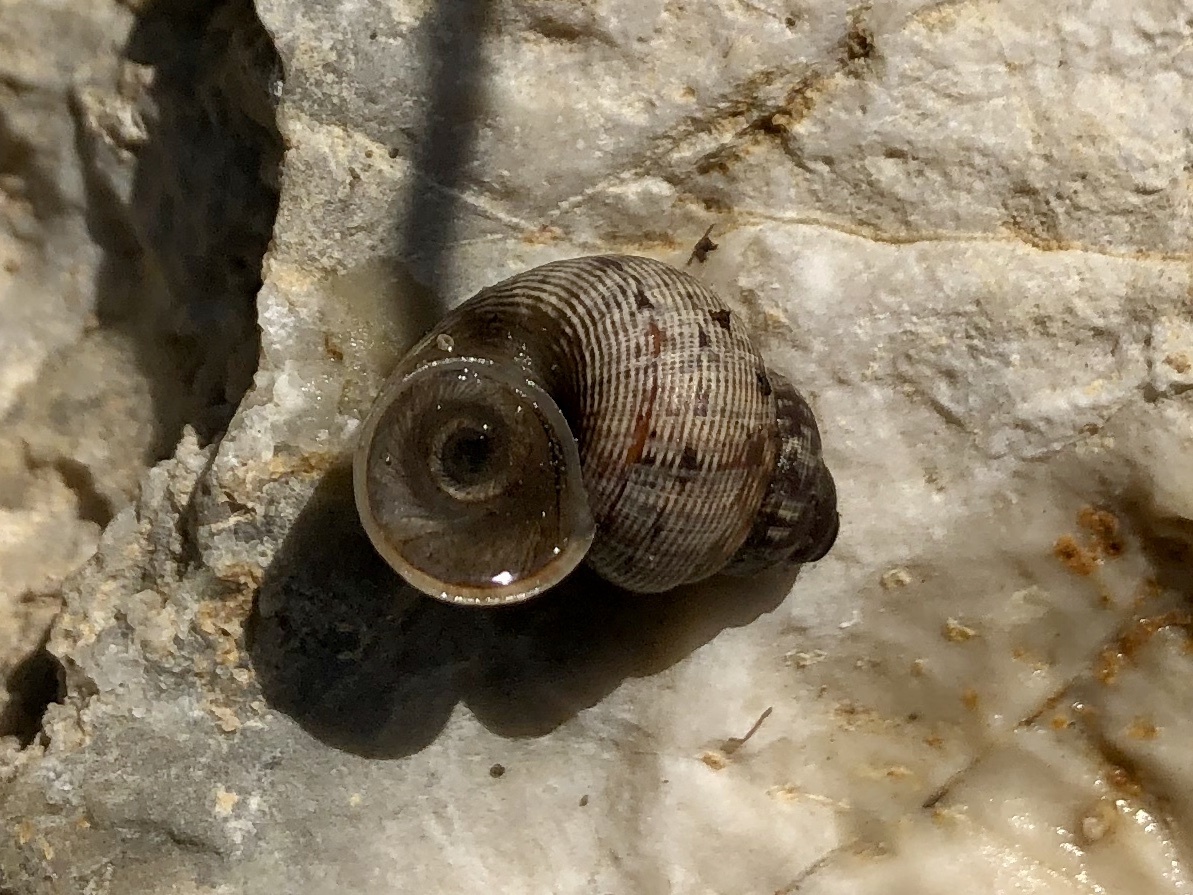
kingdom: Animalia
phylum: Mollusca
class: Gastropoda
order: Littorinimorpha
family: Pomatiidae
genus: Pomatias
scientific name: Pomatias elegans
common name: Red-mouthed snail
